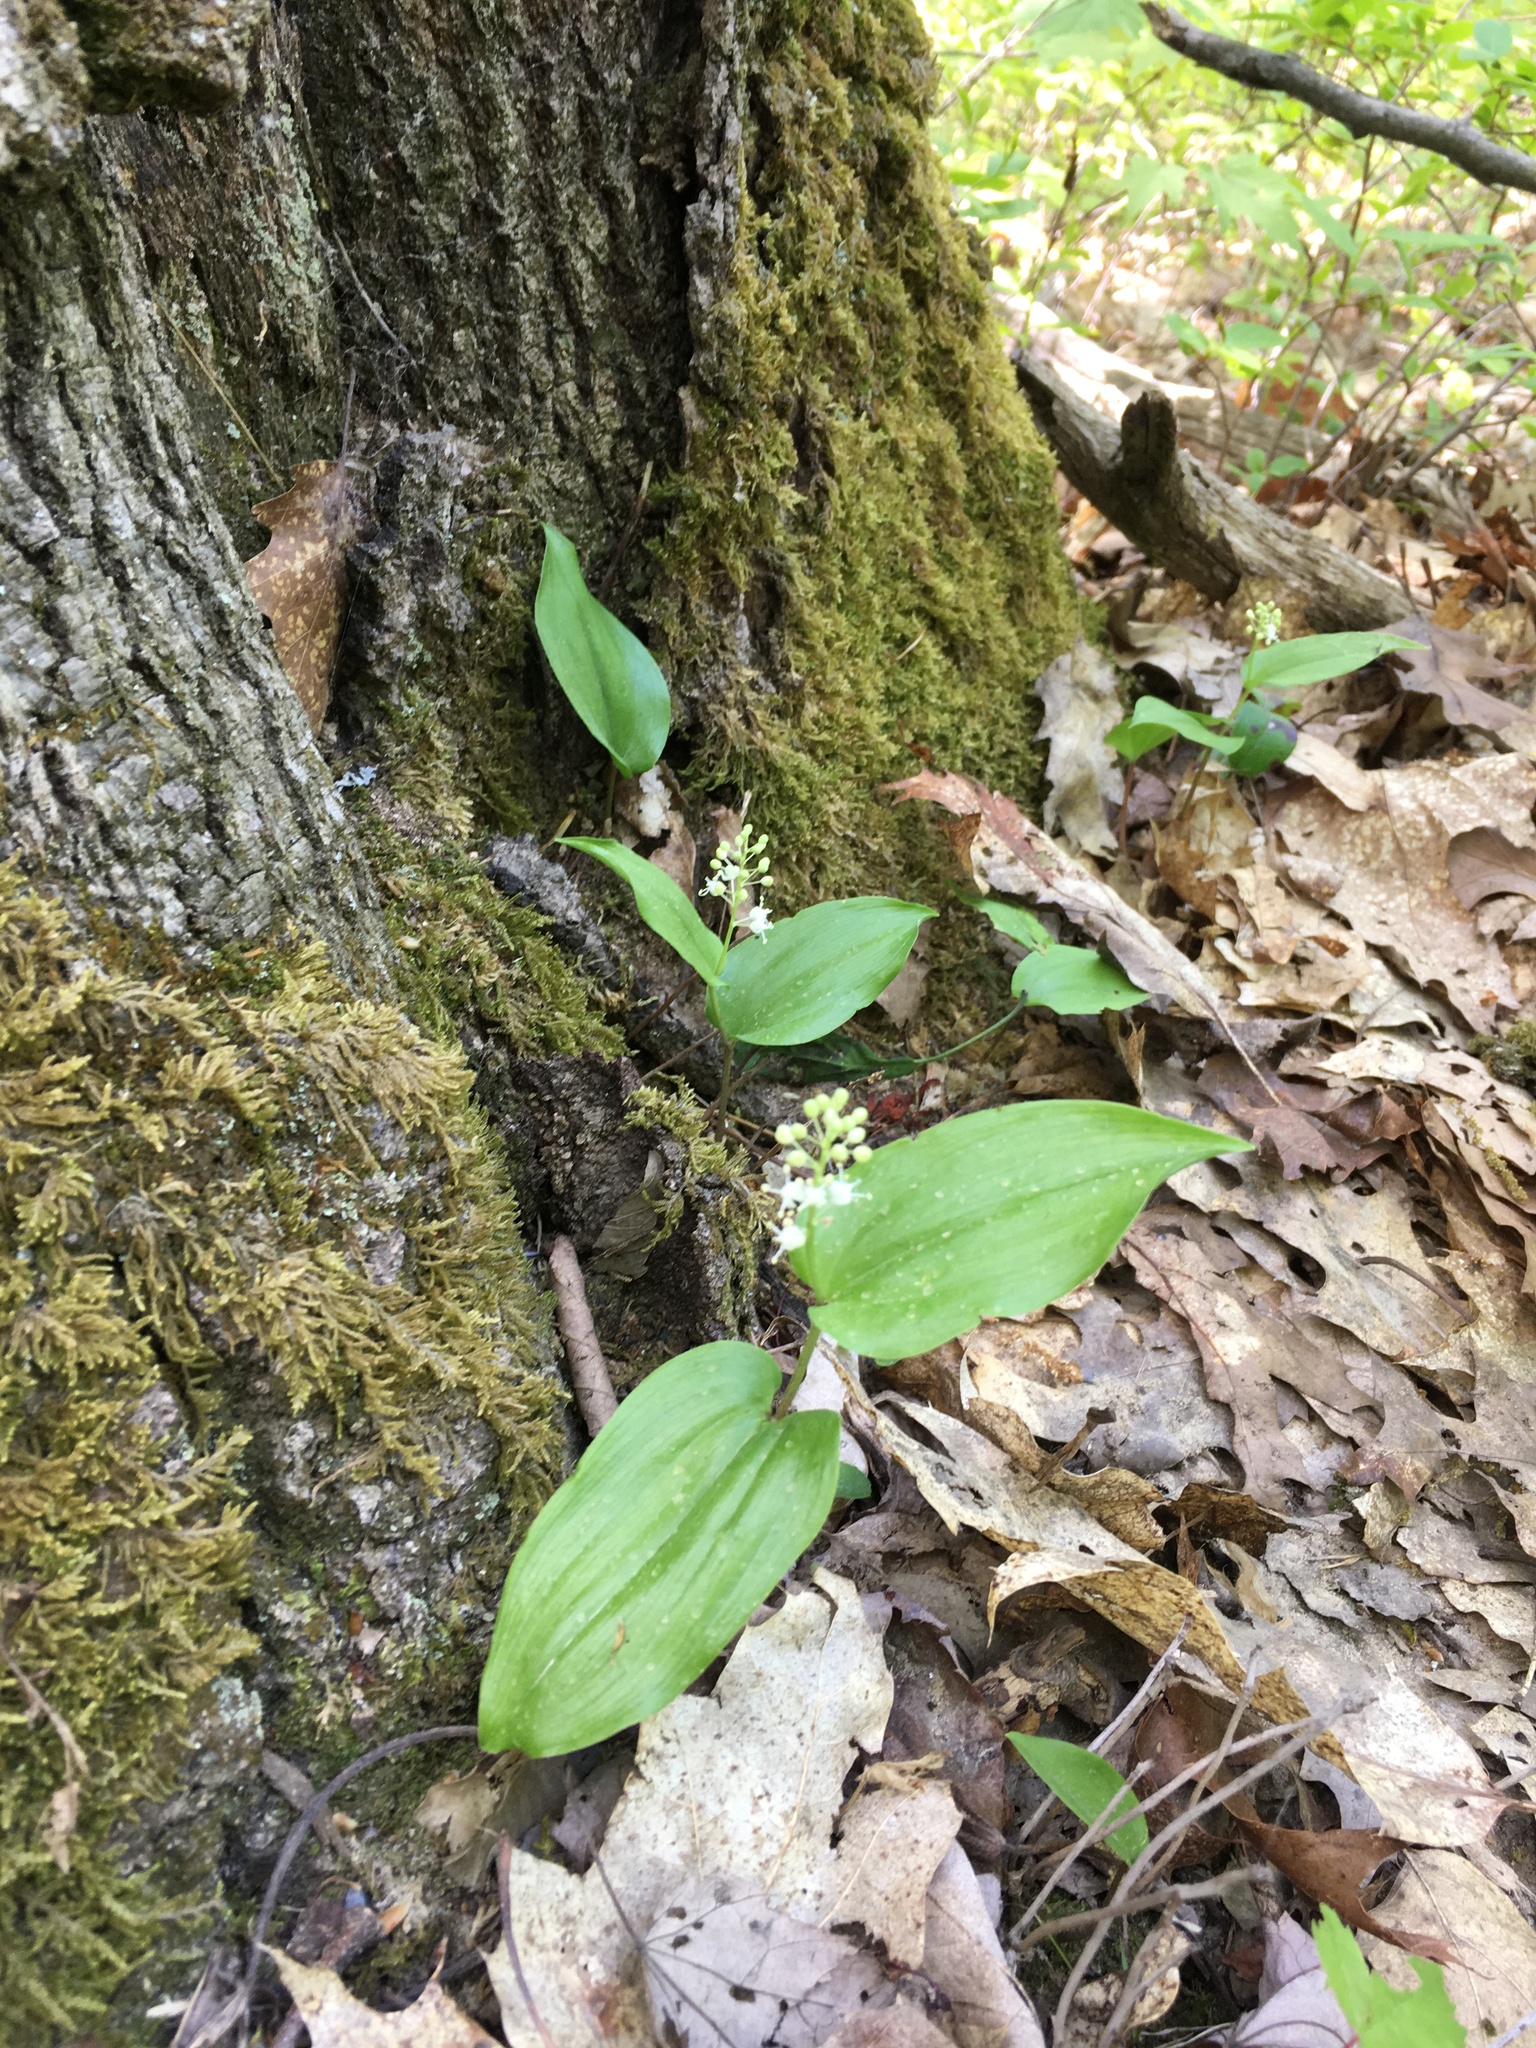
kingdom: Plantae
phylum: Tracheophyta
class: Liliopsida
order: Asparagales
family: Asparagaceae
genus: Maianthemum
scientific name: Maianthemum canadense
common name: False lily-of-the-valley
